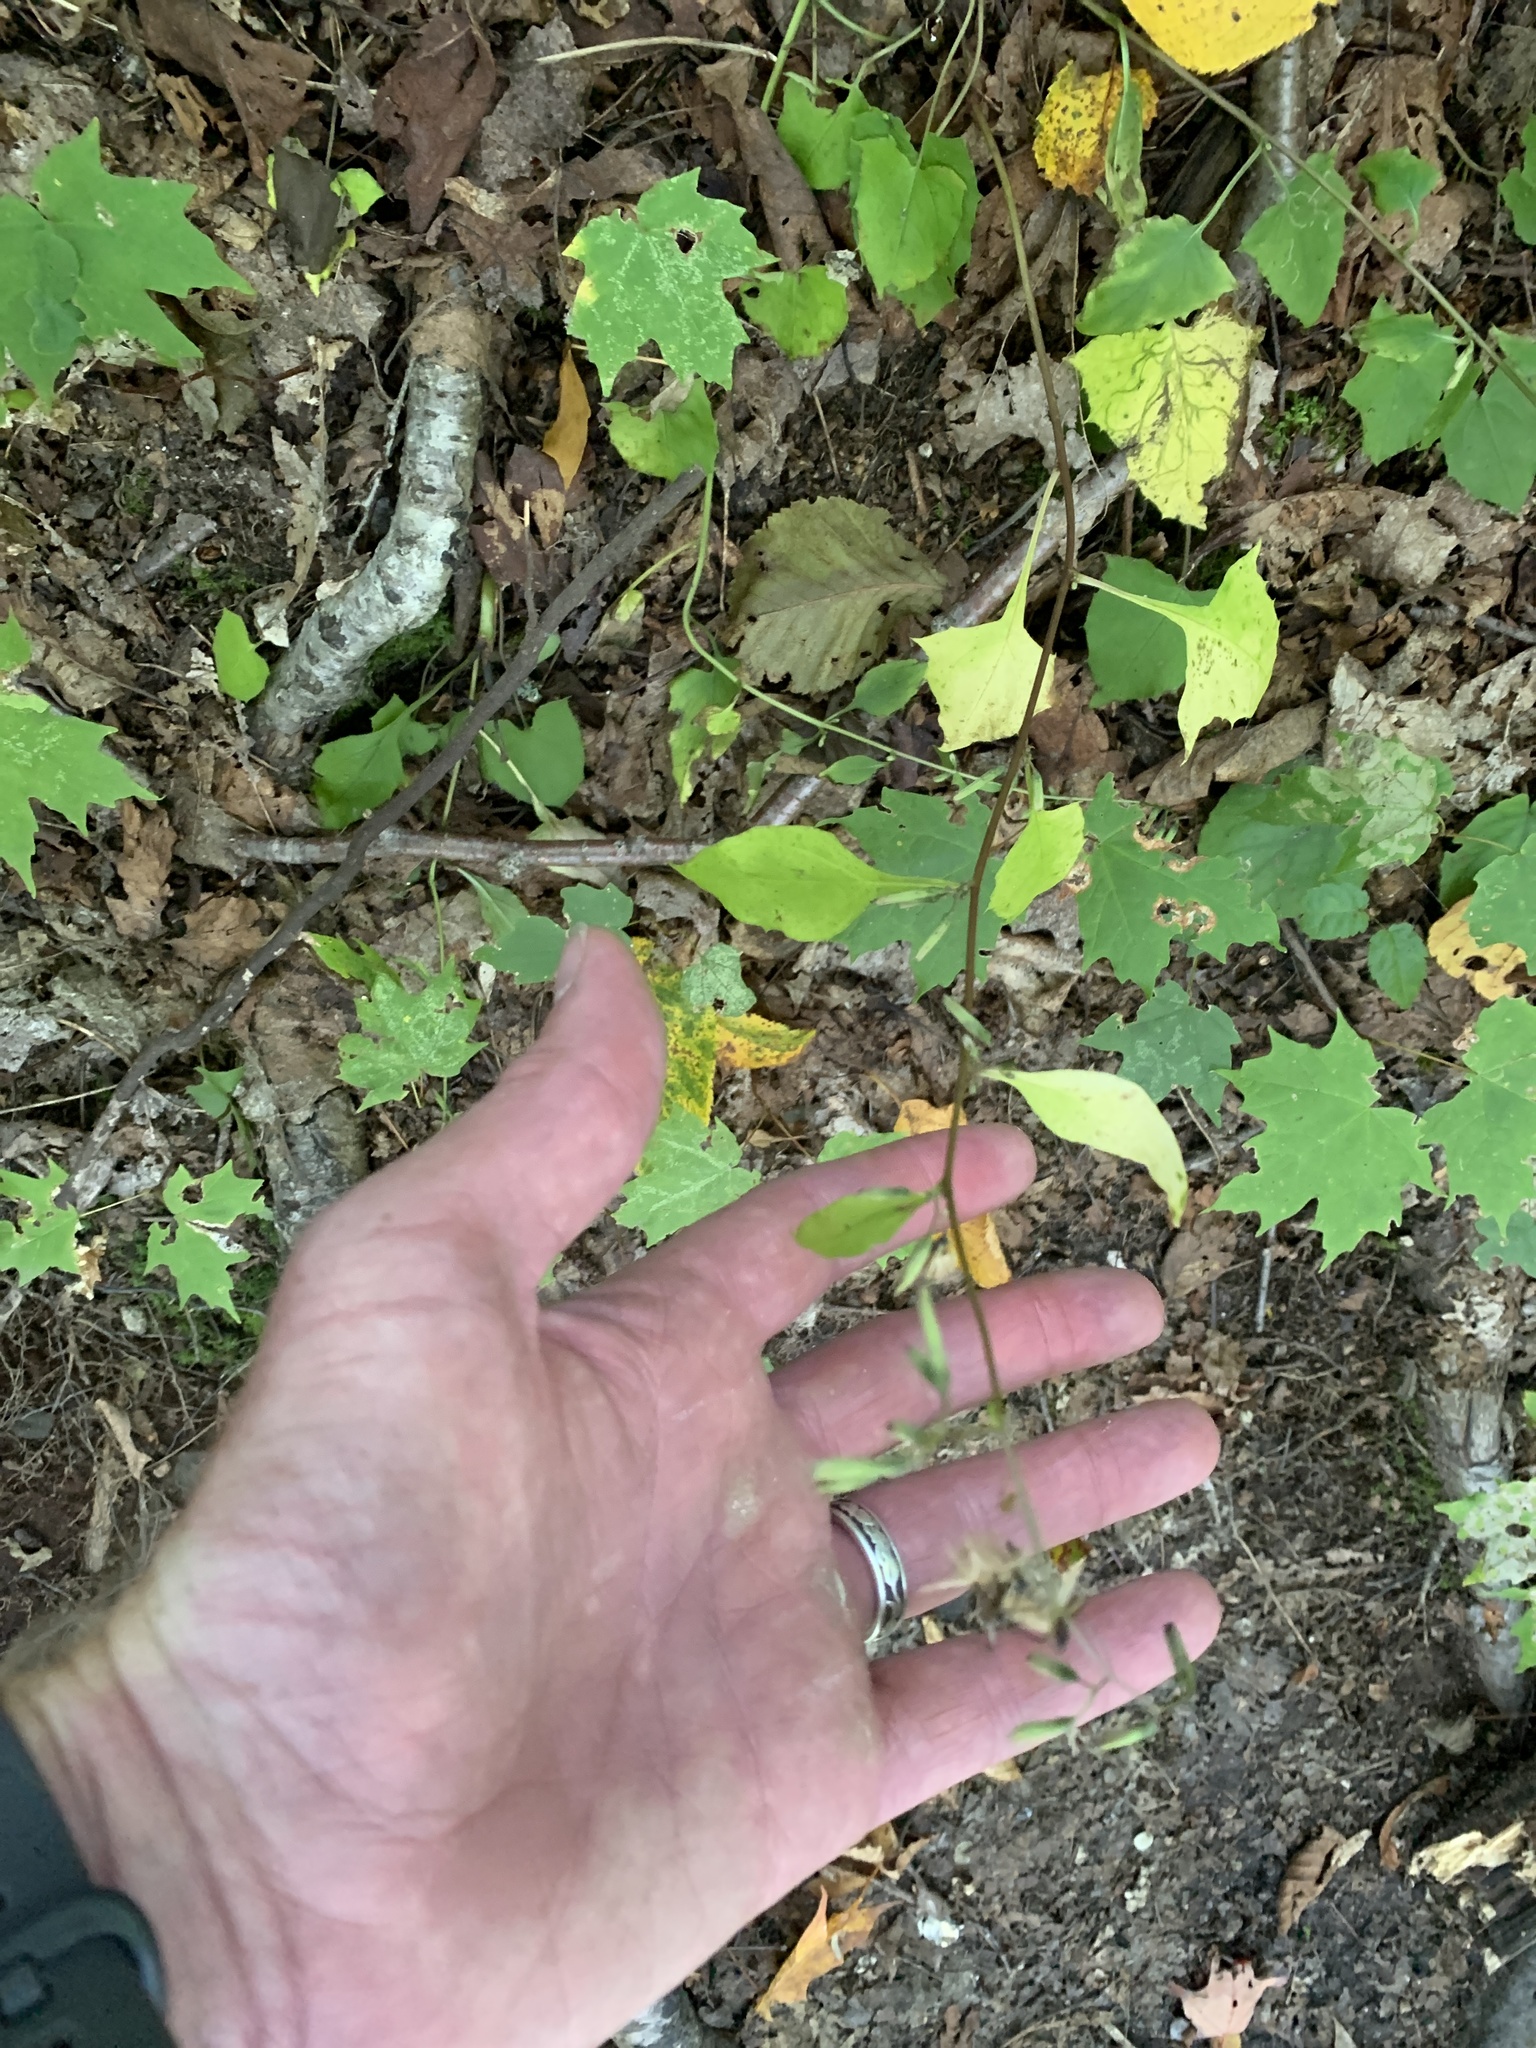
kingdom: Plantae
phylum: Tracheophyta
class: Magnoliopsida
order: Asterales
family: Asteraceae
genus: Nabalus
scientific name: Nabalus altissima
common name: Tall rattlesnakeroot
